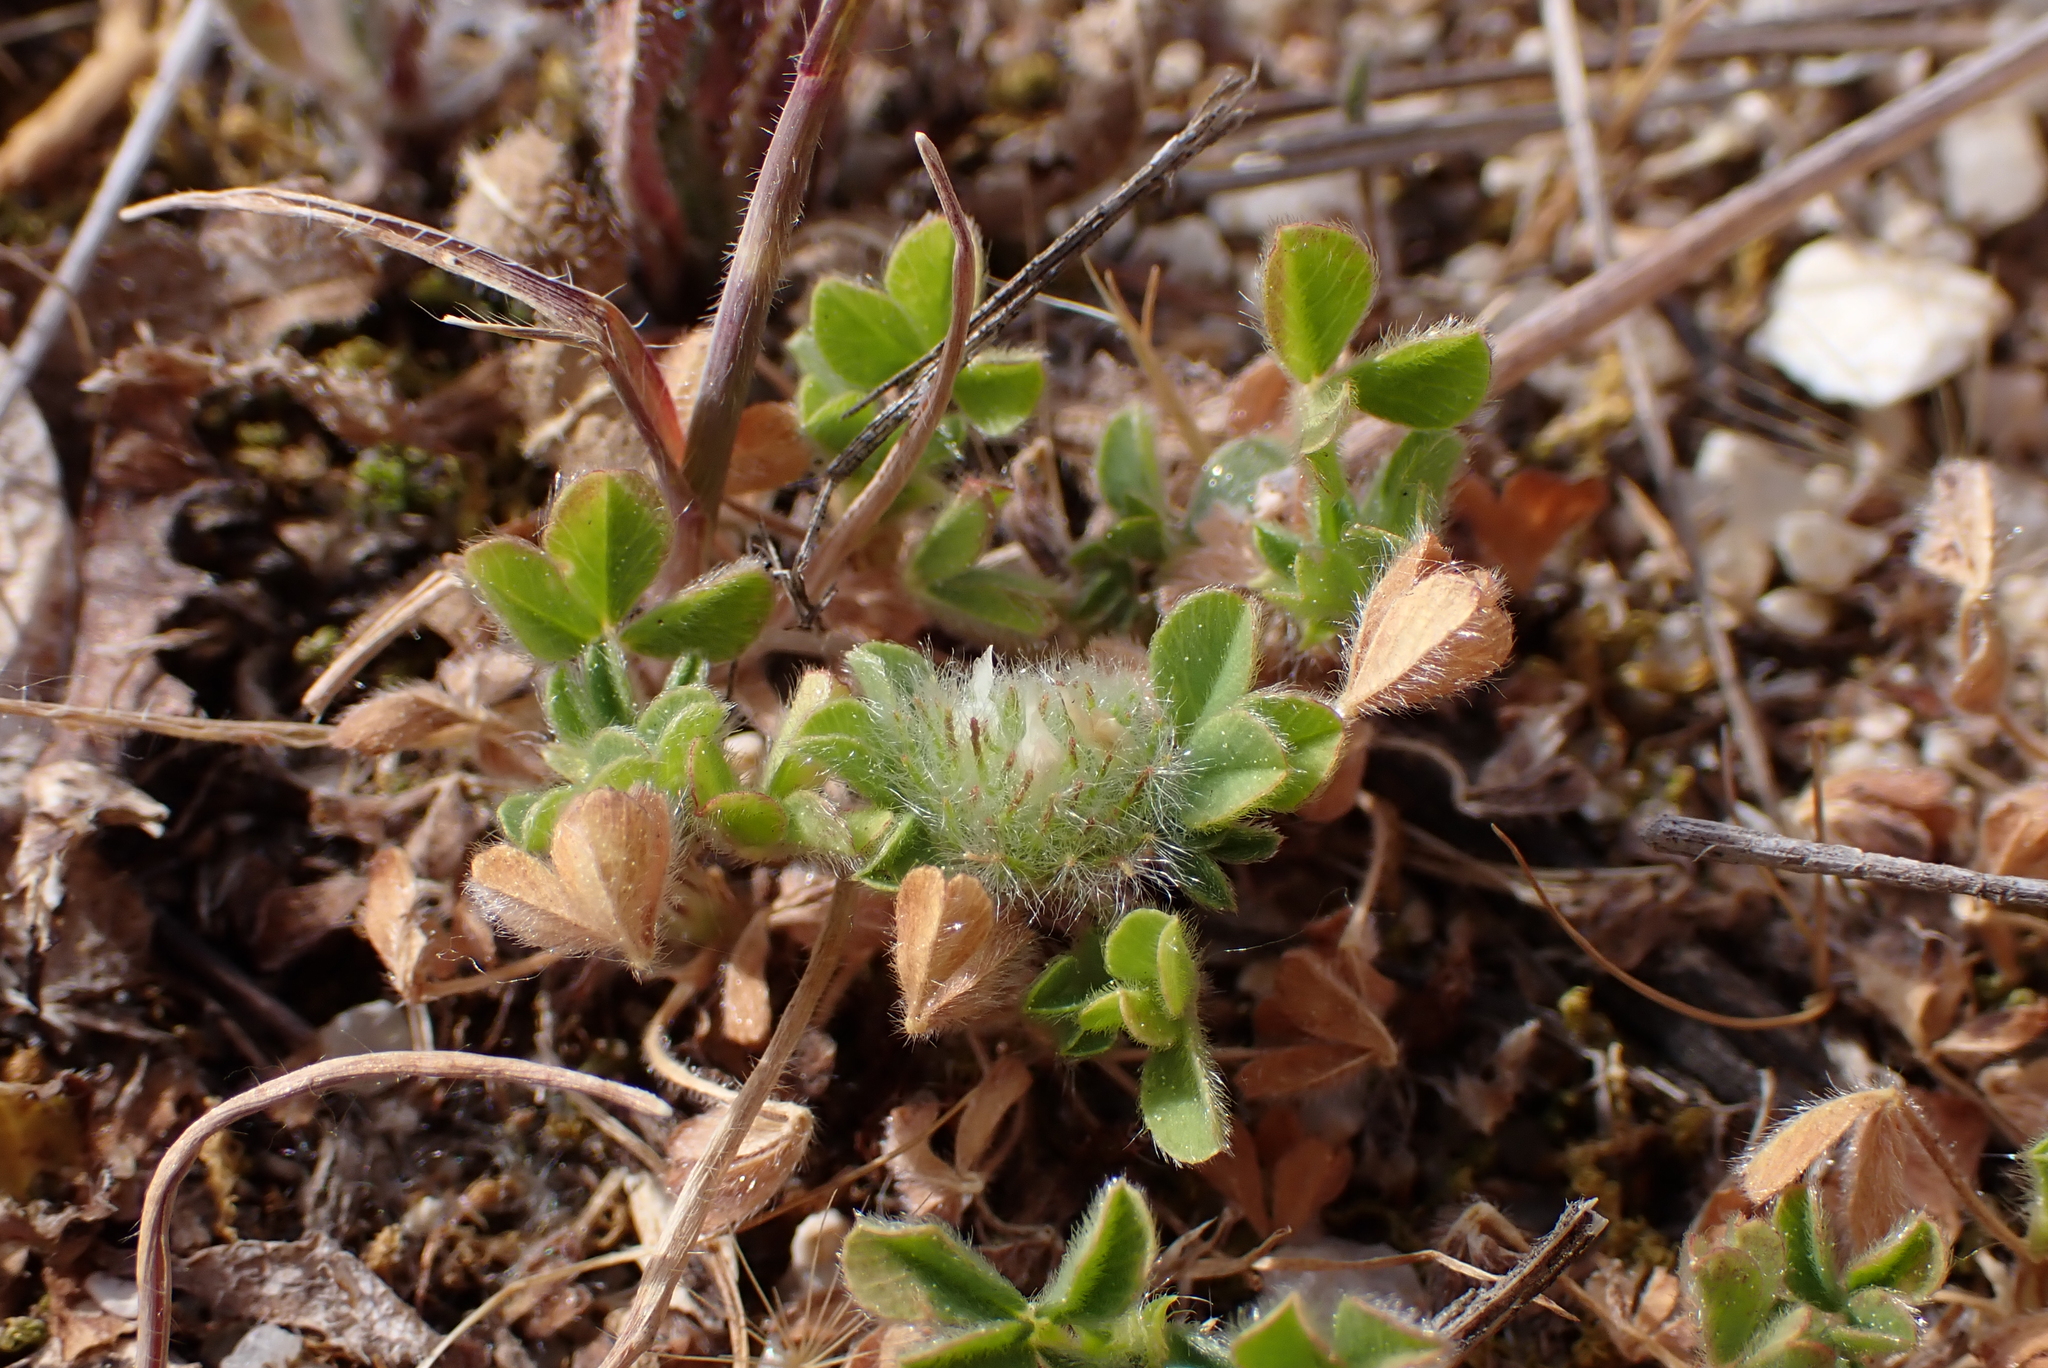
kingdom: Plantae
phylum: Tracheophyta
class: Magnoliopsida
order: Fabales
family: Fabaceae
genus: Trifolium
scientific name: Trifolium cherleri
